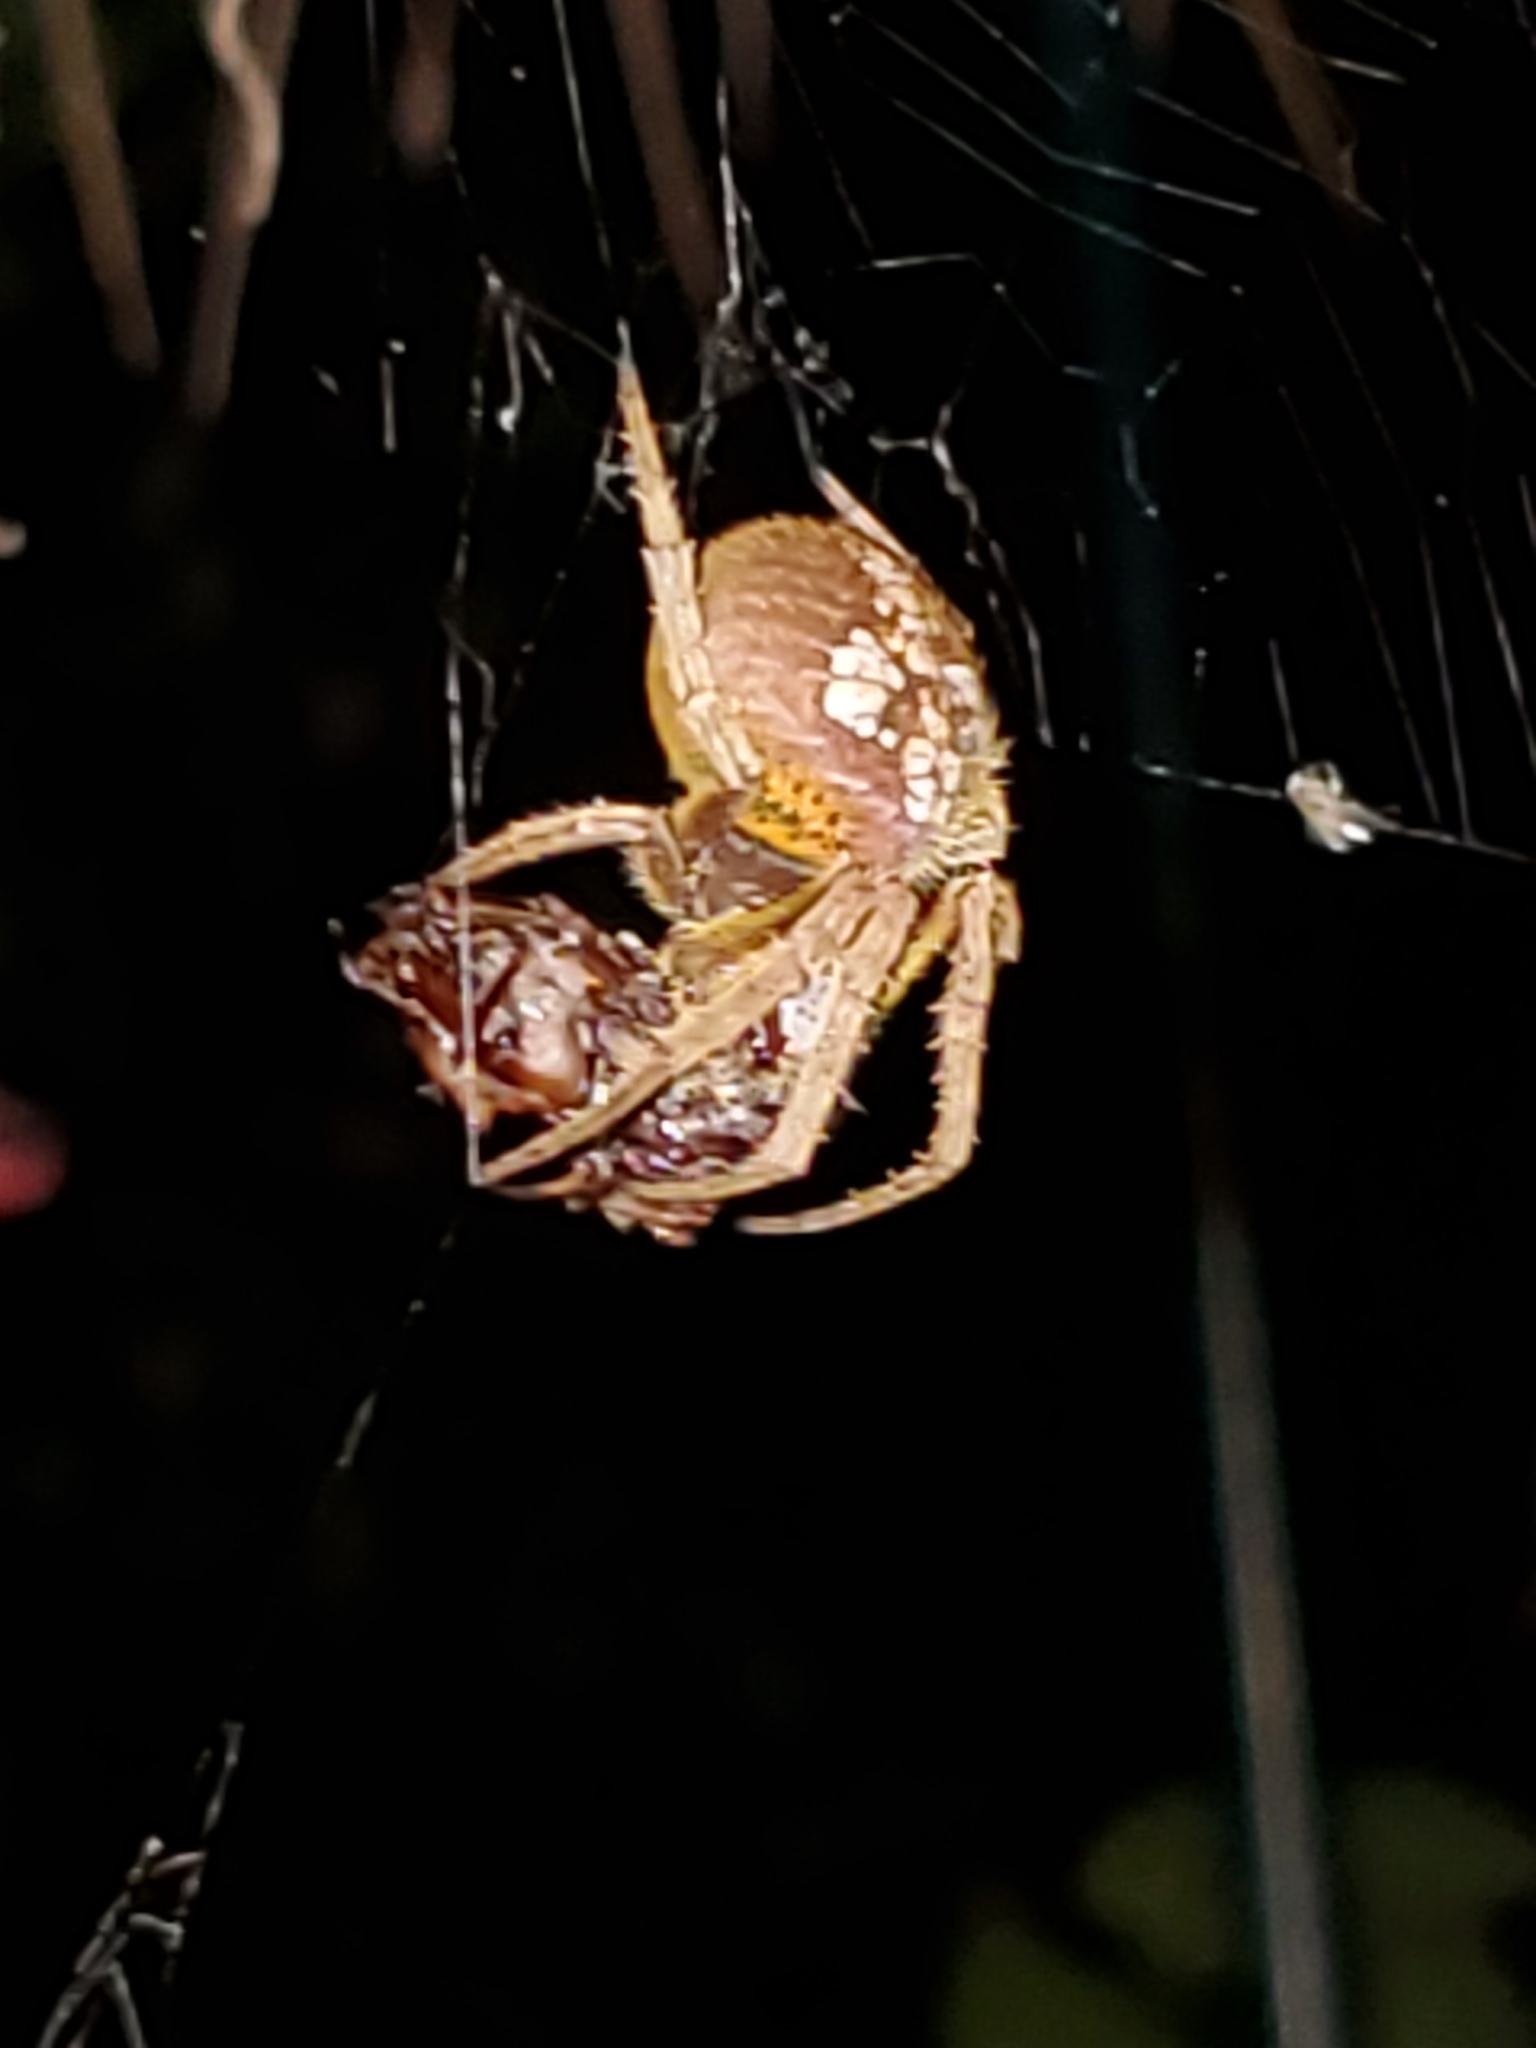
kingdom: Animalia
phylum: Arthropoda
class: Arachnida
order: Araneae
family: Araneidae
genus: Eriophora
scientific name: Eriophora ravilla
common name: Orb weavers
